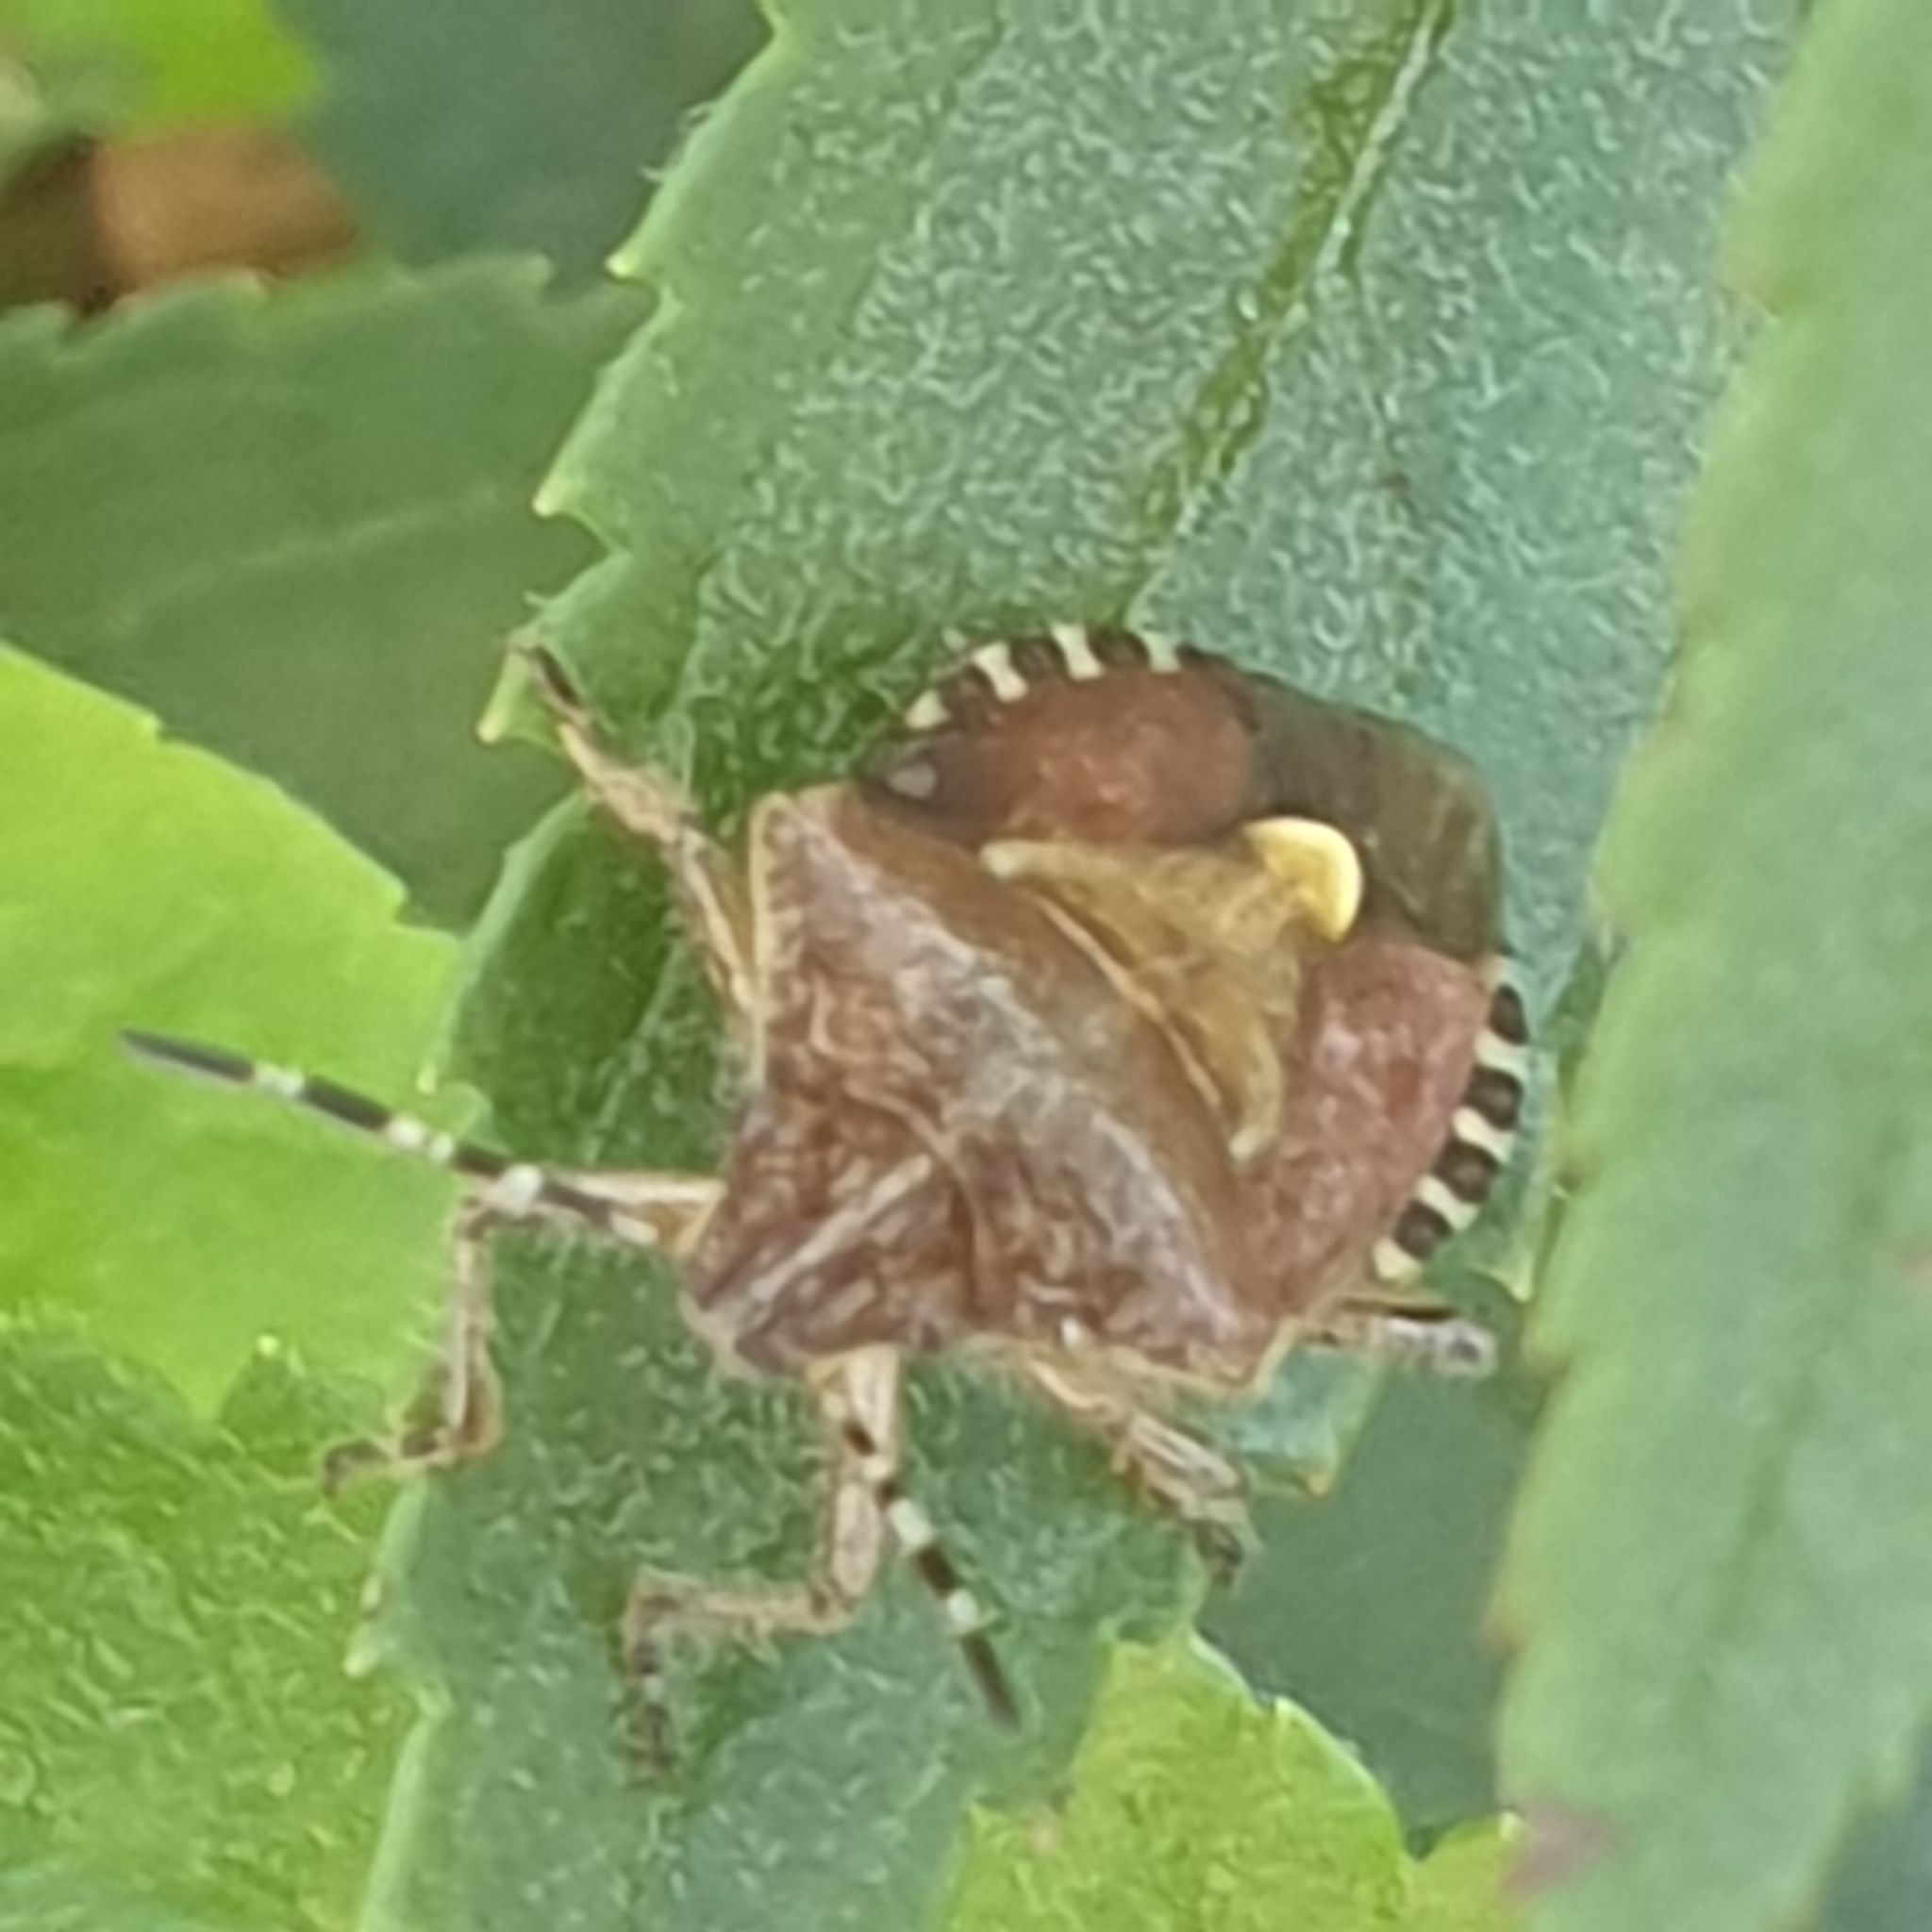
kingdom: Animalia
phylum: Arthropoda
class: Insecta
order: Hemiptera
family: Pentatomidae
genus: Dolycoris
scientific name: Dolycoris baccarum
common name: Sloe bug
